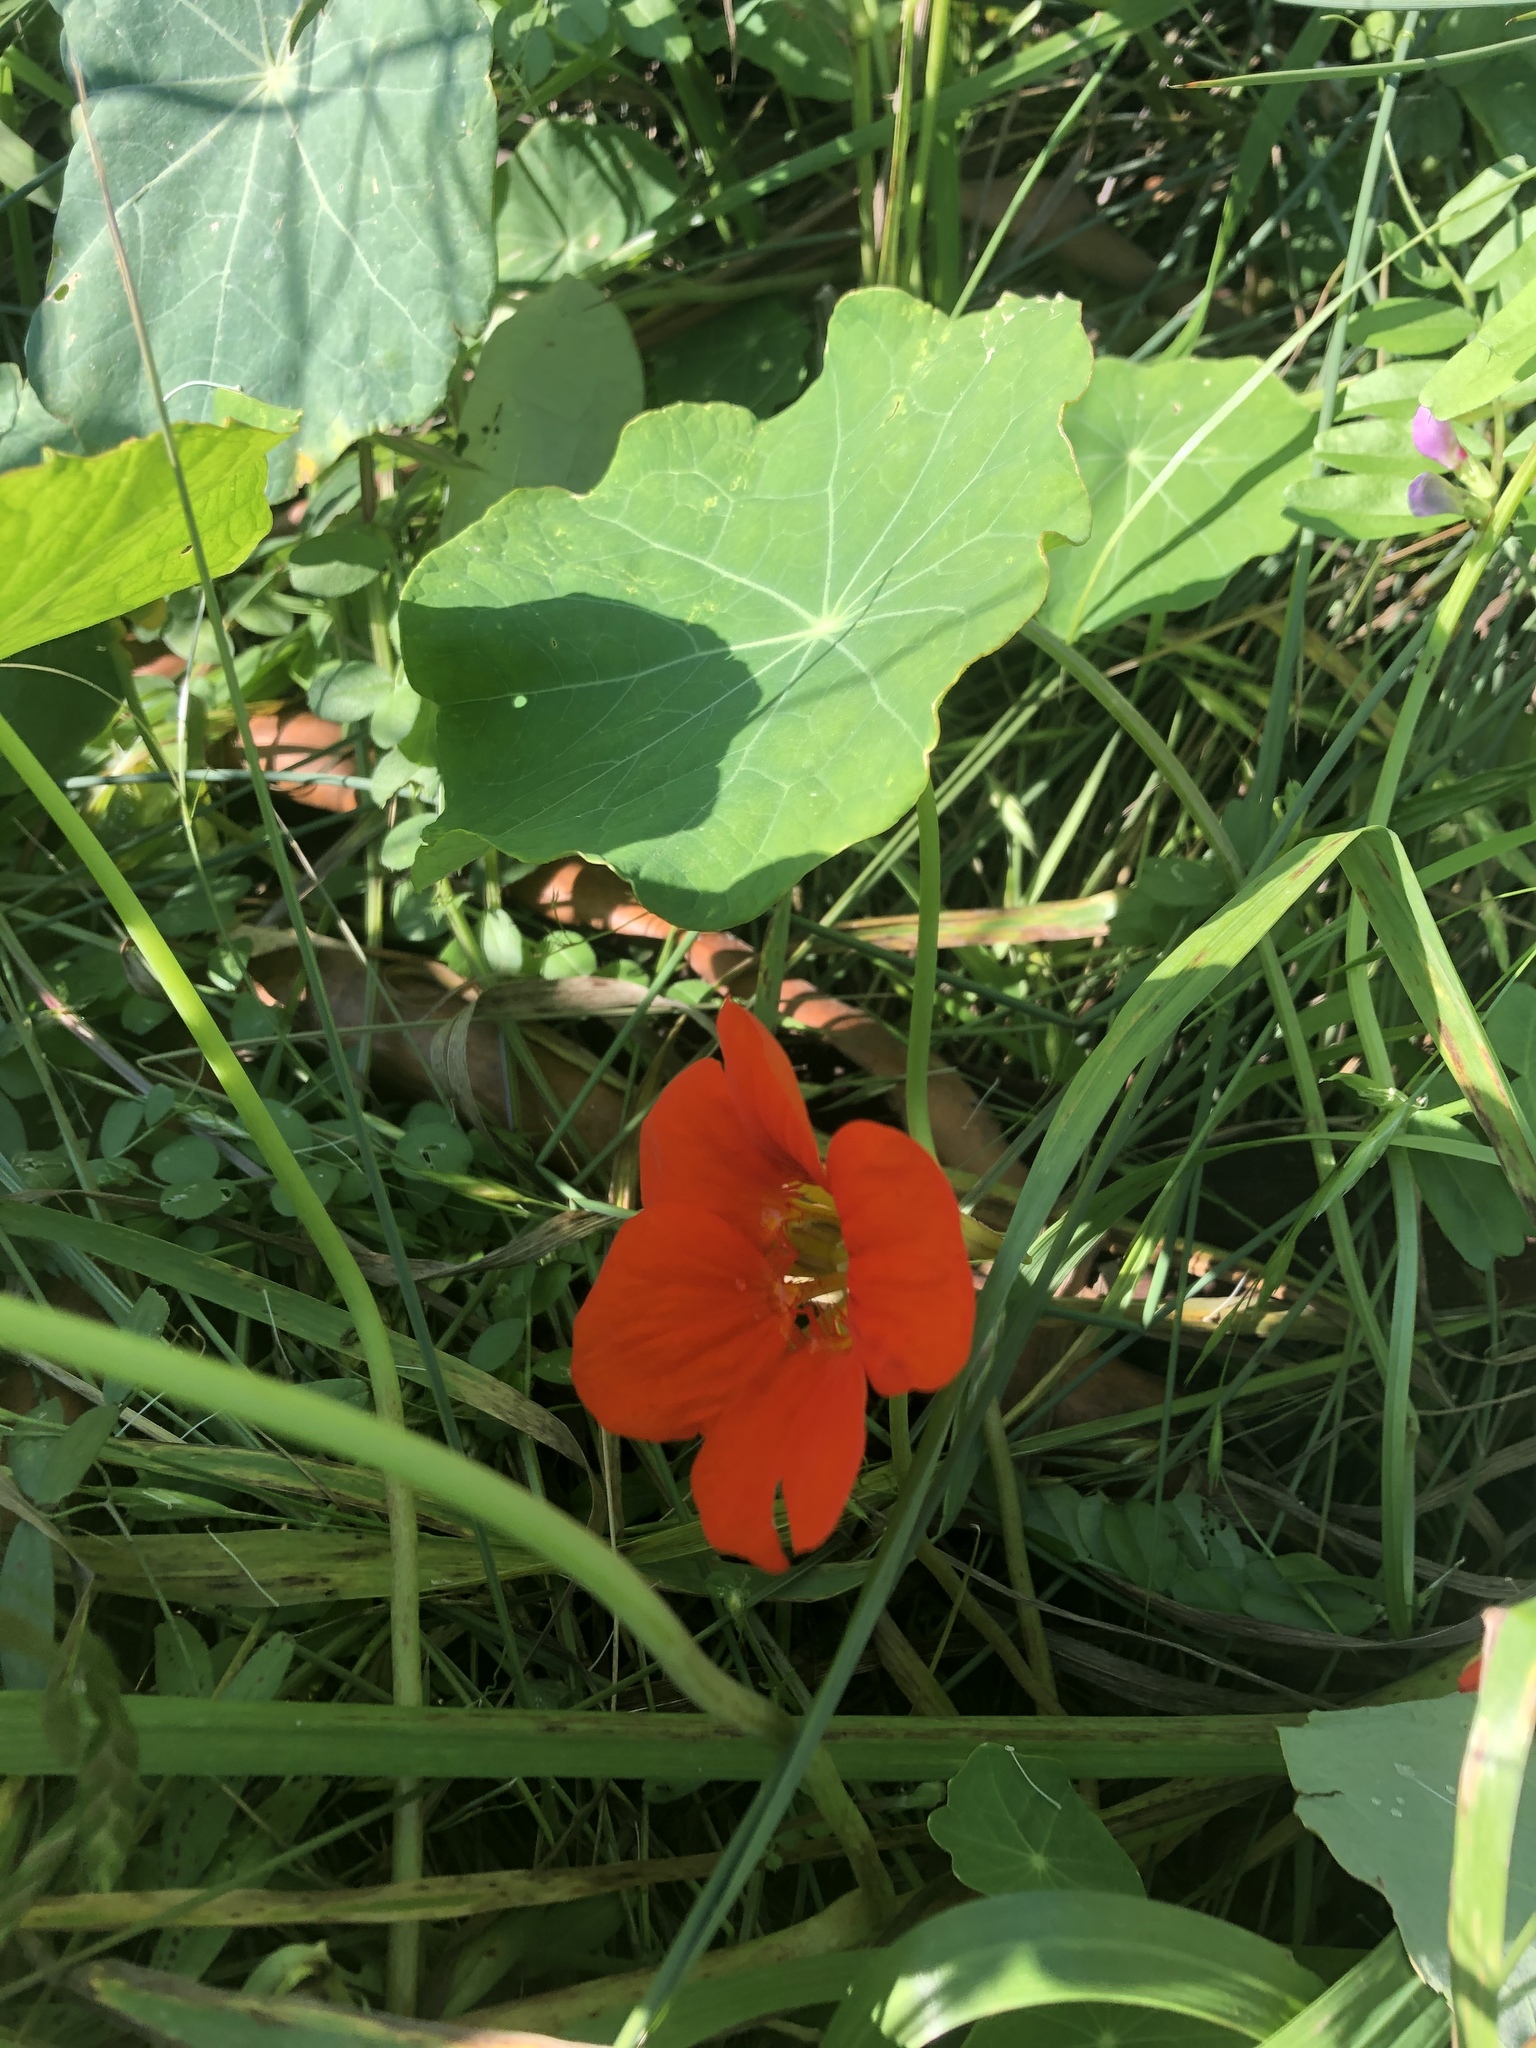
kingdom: Plantae
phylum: Tracheophyta
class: Magnoliopsida
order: Brassicales
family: Tropaeolaceae
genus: Tropaeolum
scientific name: Tropaeolum majus
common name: Nasturtium
